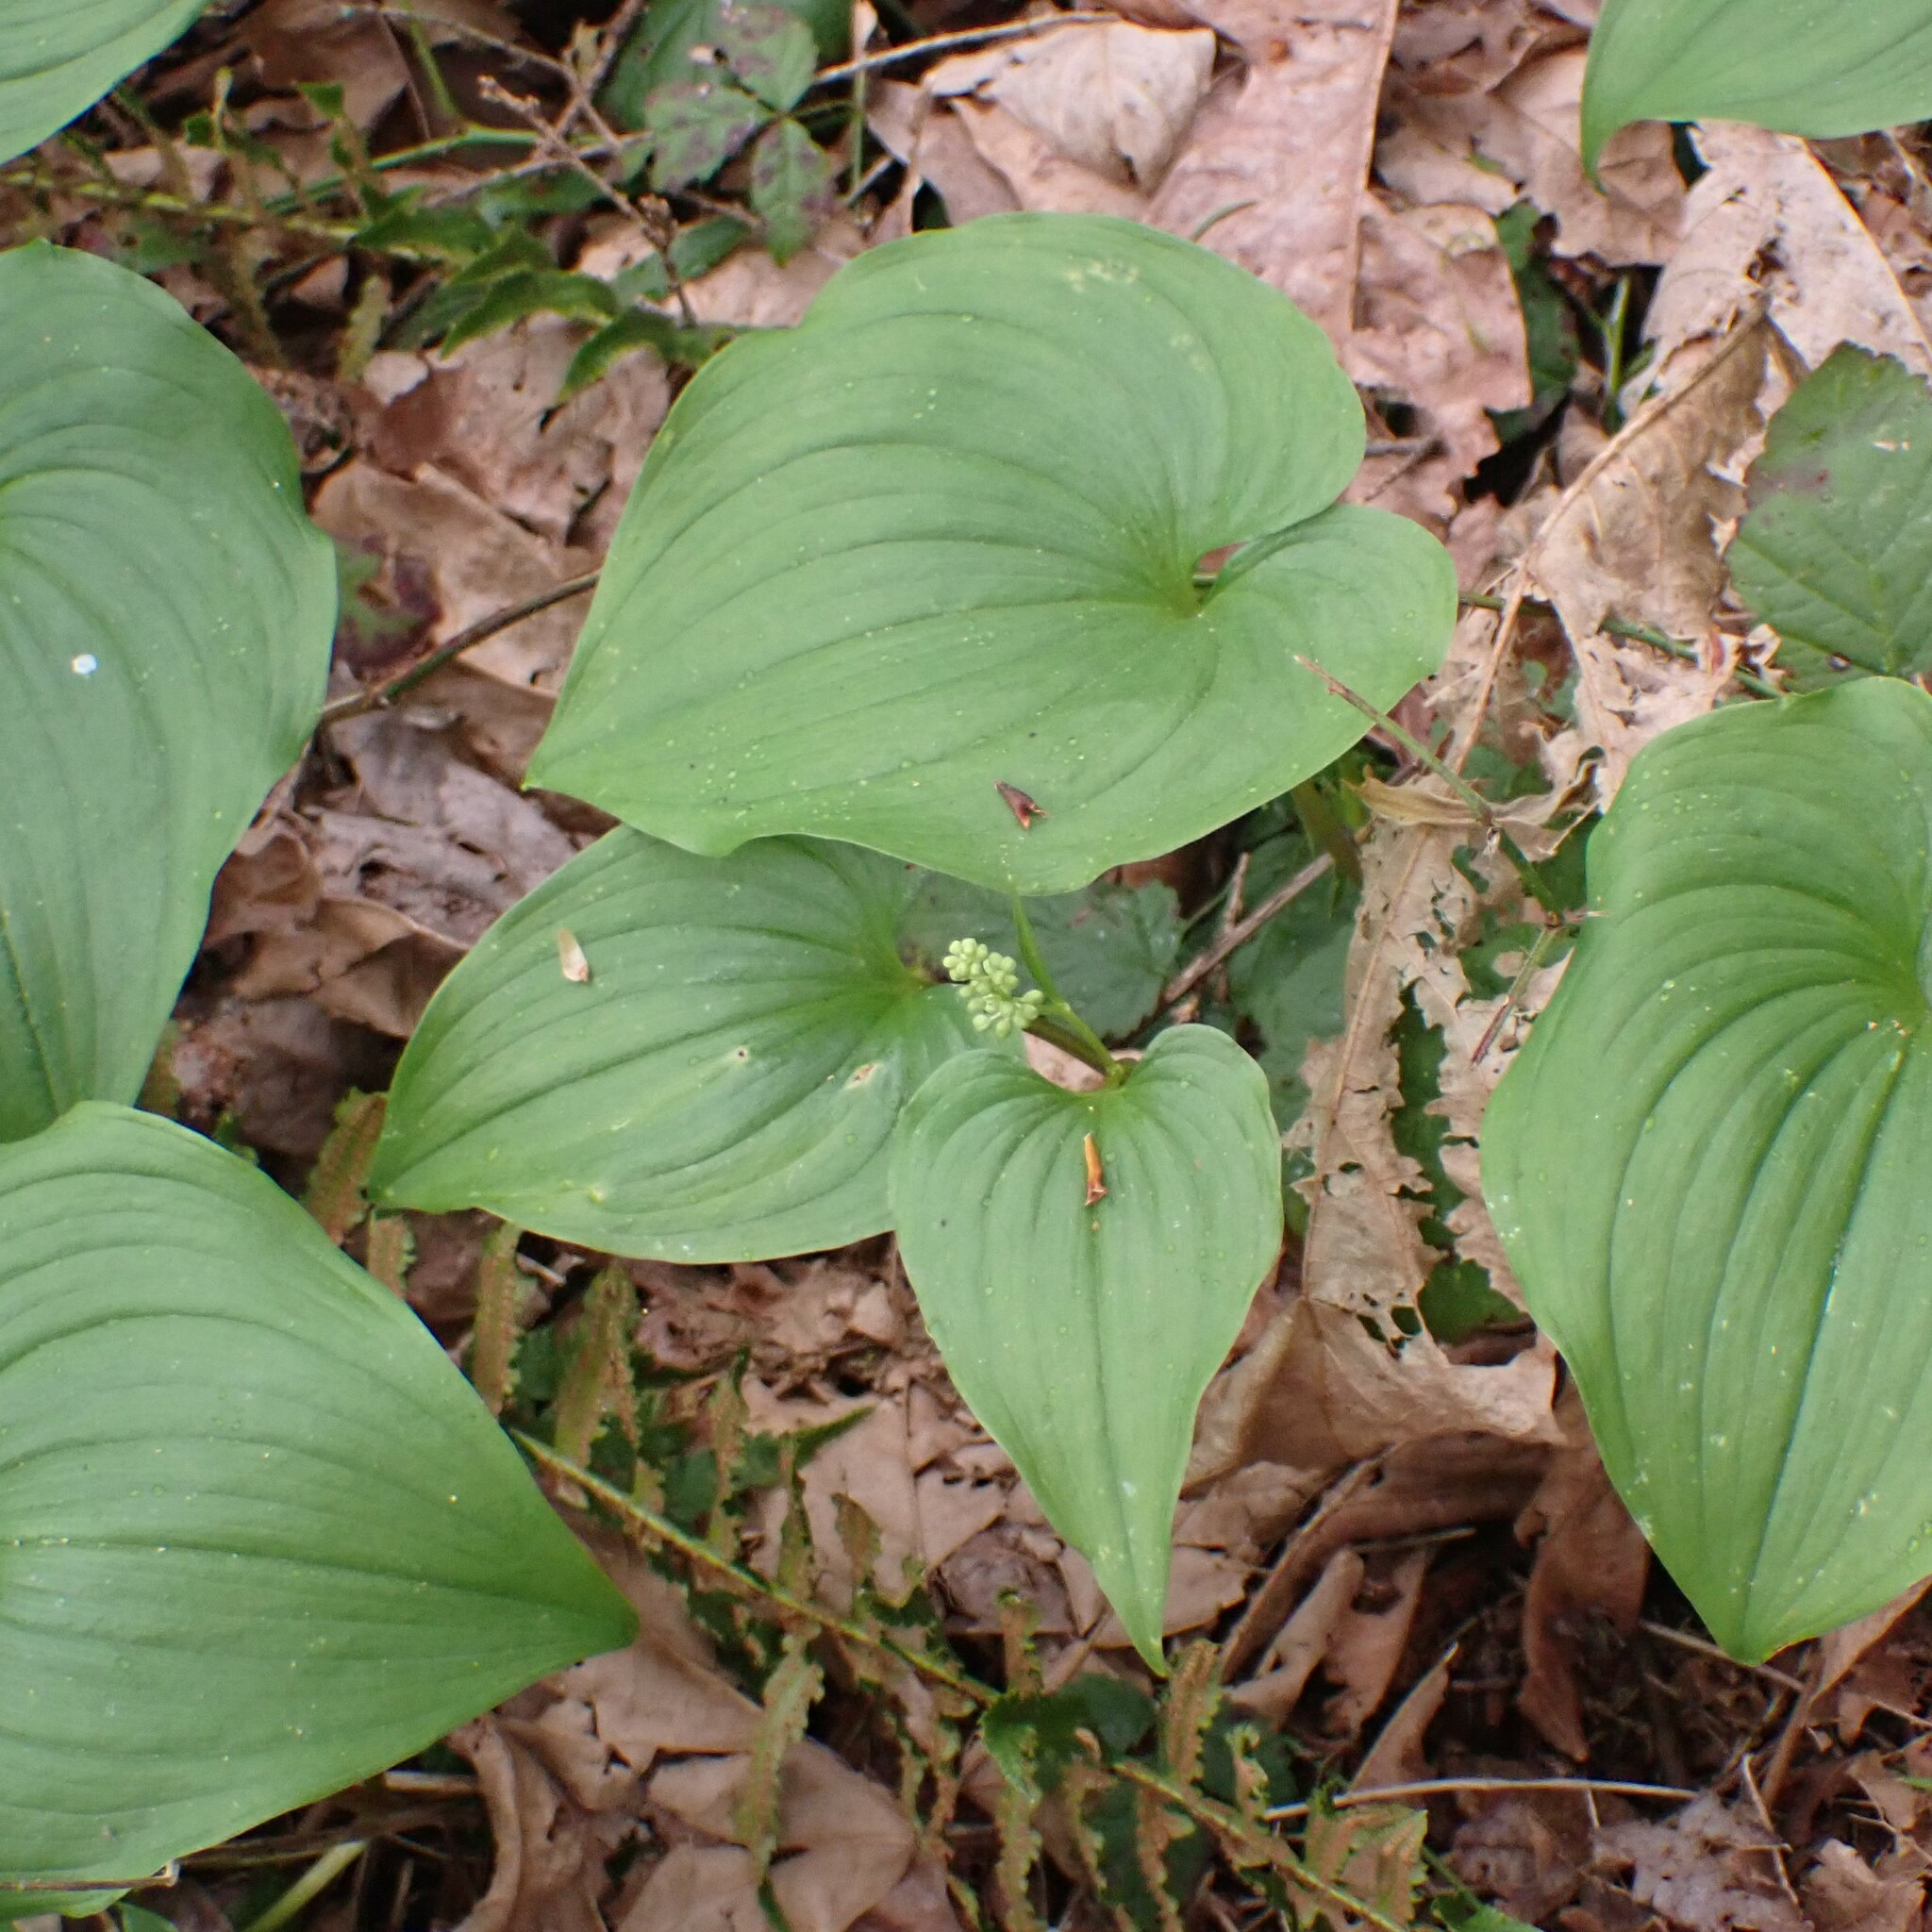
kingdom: Plantae
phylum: Tracheophyta
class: Liliopsida
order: Asparagales
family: Asparagaceae
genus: Maianthemum
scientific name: Maianthemum dilatatum
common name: False lily-of-the-valley
